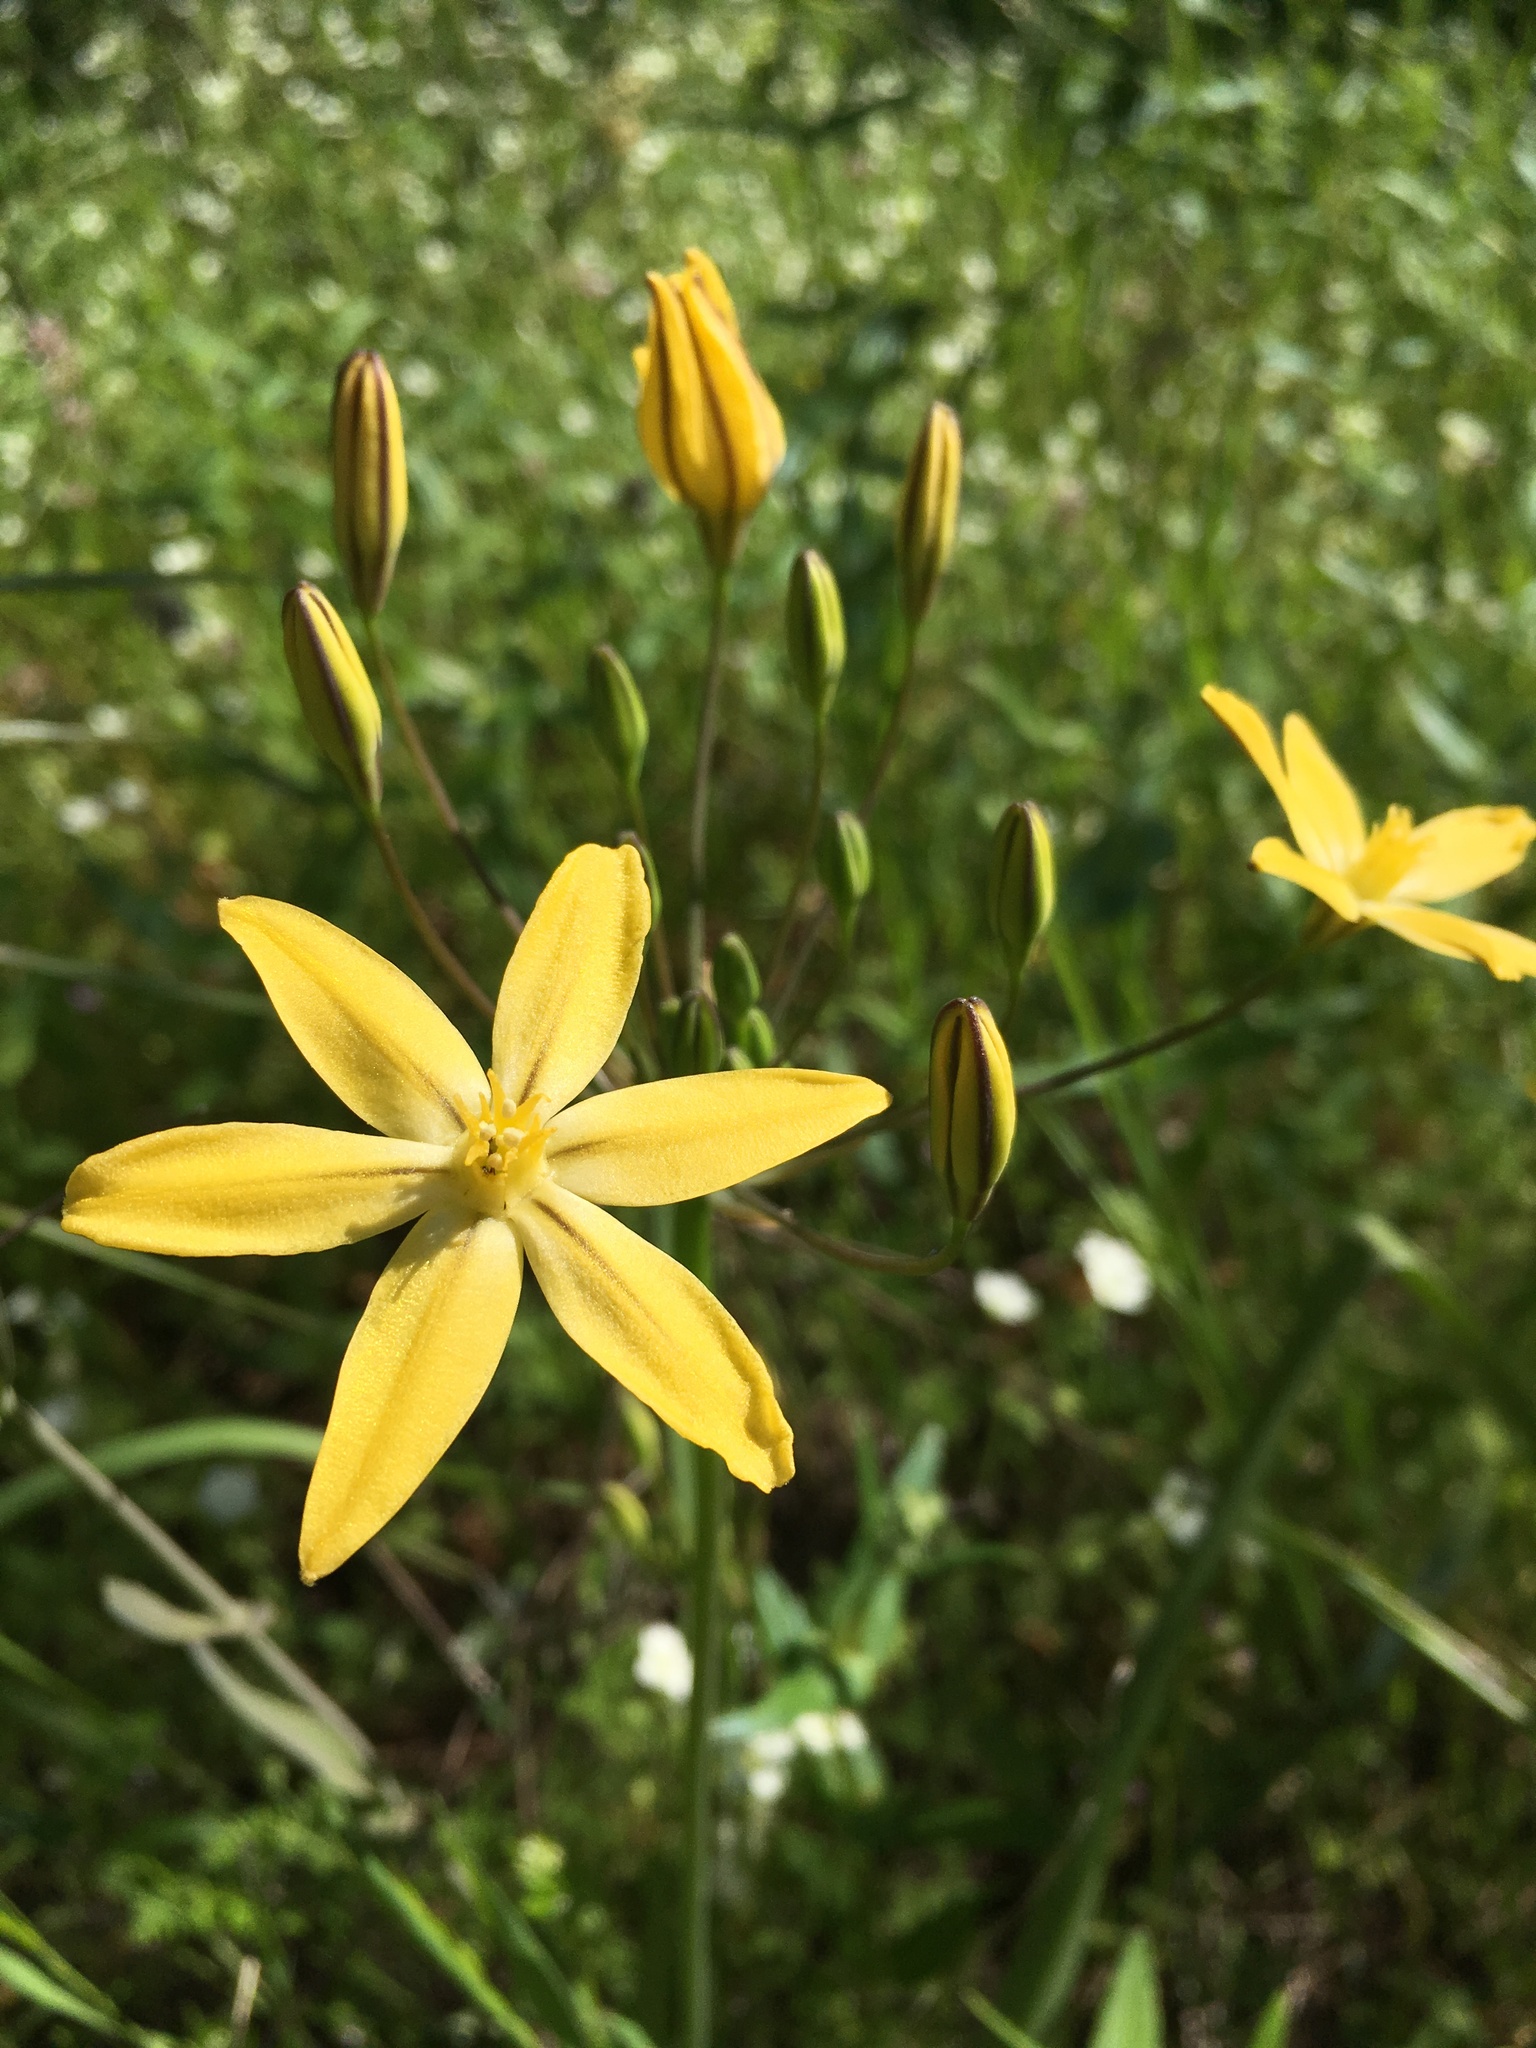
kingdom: Plantae
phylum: Tracheophyta
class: Liliopsida
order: Asparagales
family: Asparagaceae
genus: Triteleia
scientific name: Triteleia ixioides
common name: Yellow-brodiaea
